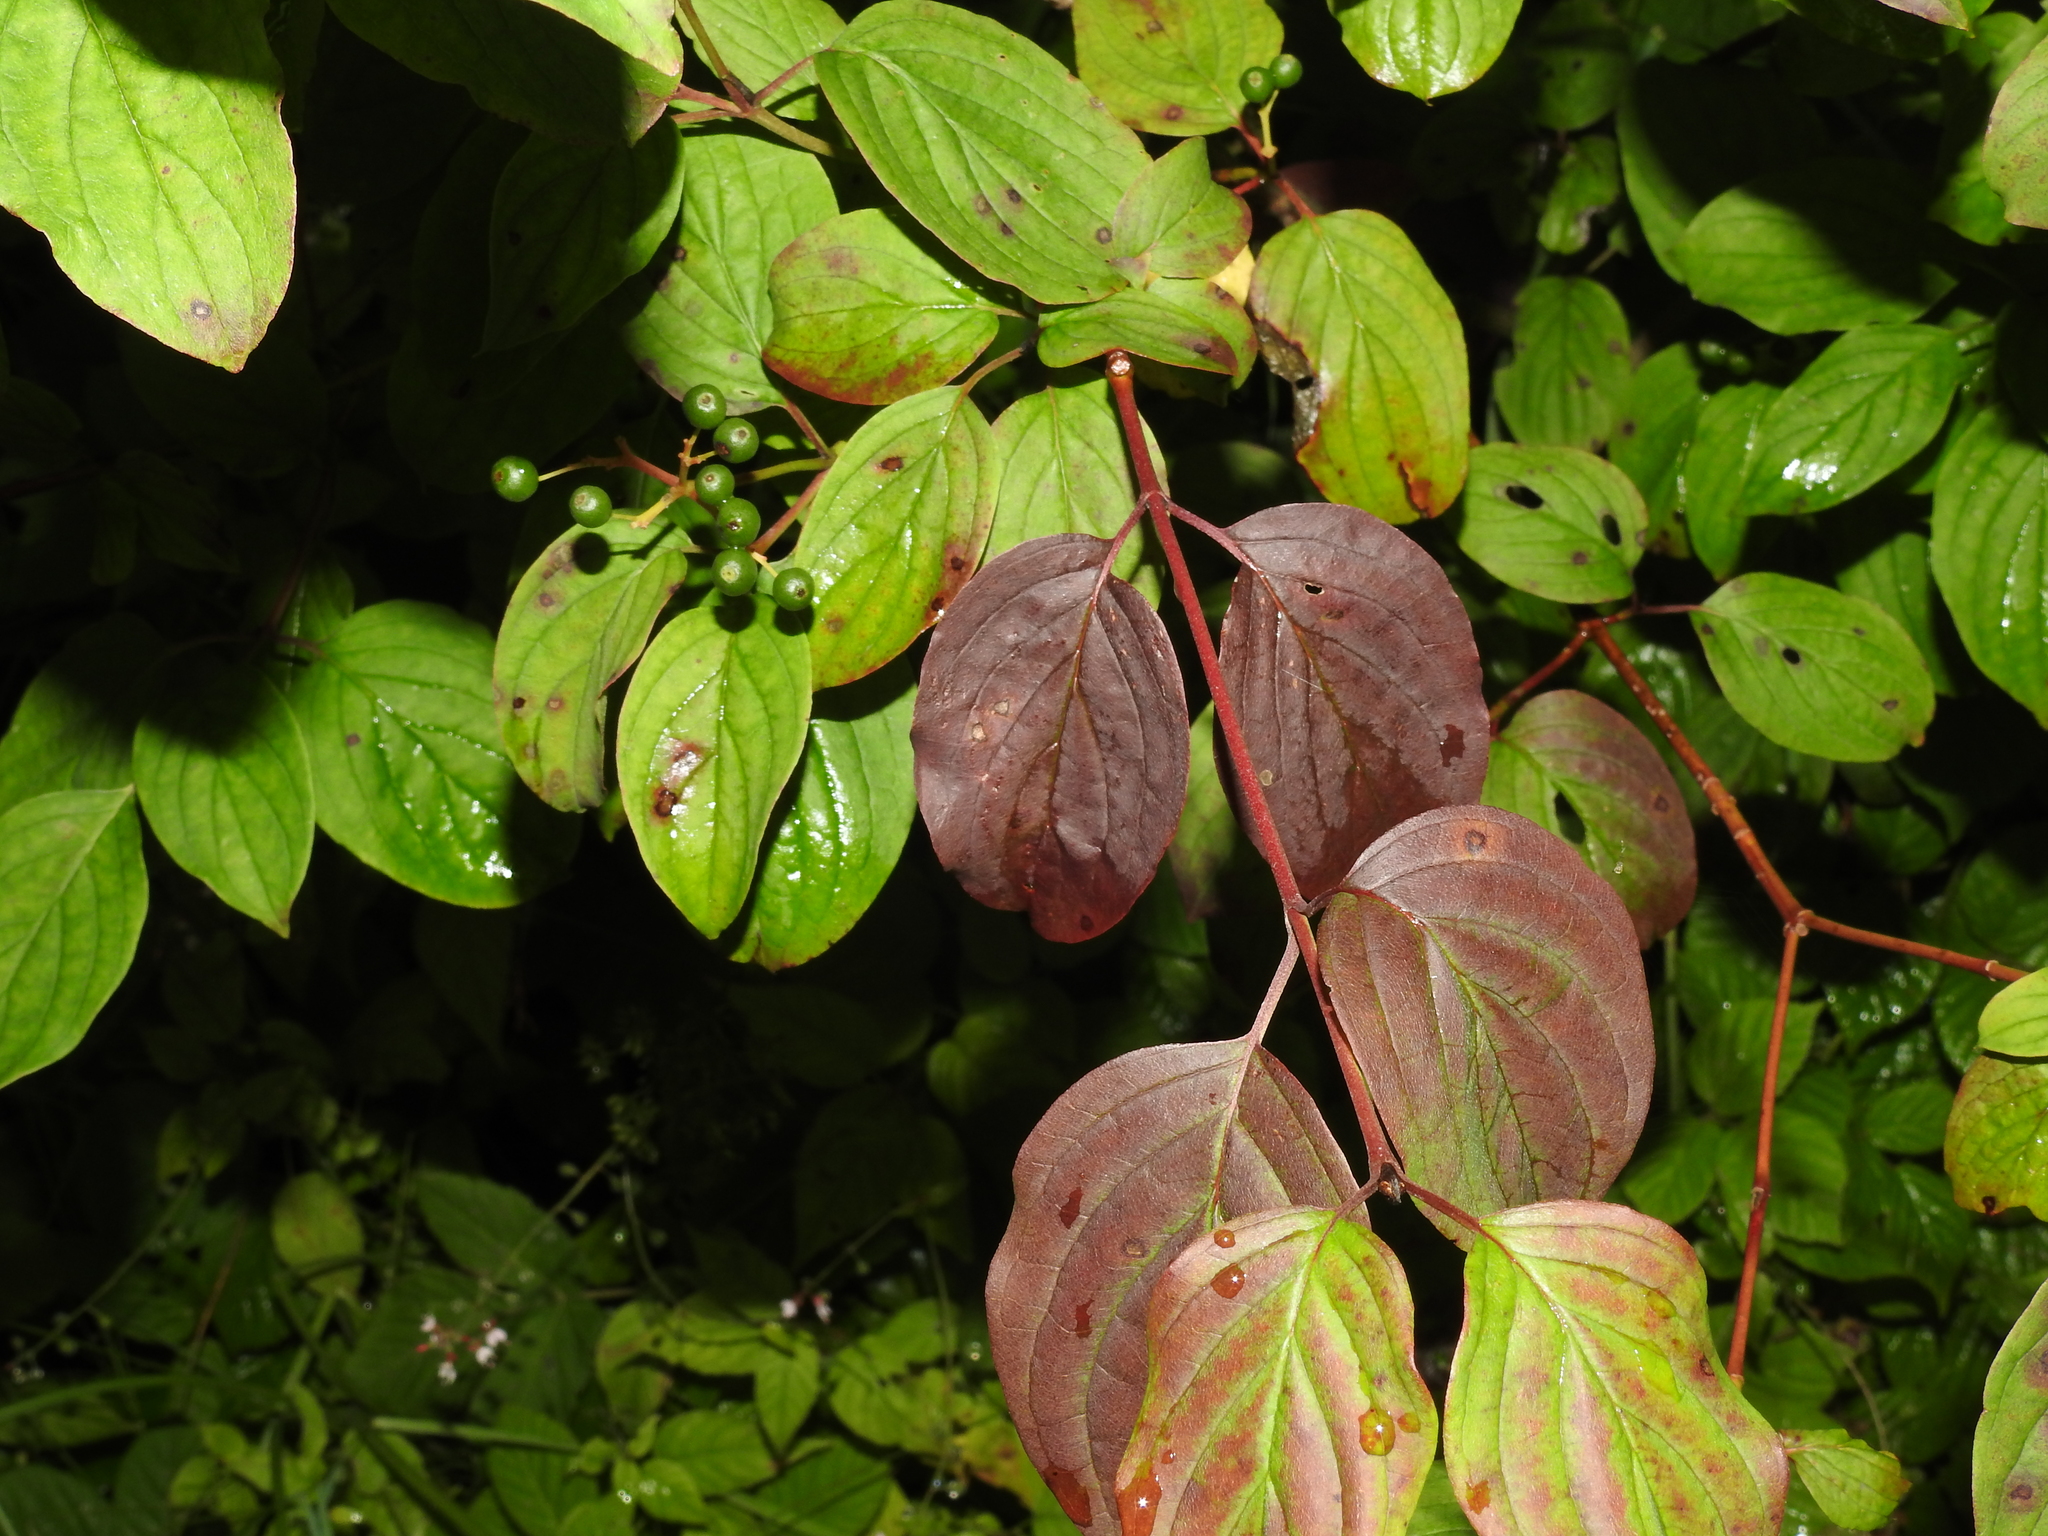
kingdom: Plantae
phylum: Tracheophyta
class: Magnoliopsida
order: Cornales
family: Cornaceae
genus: Cornus
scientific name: Cornus sanguinea
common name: Dogwood
